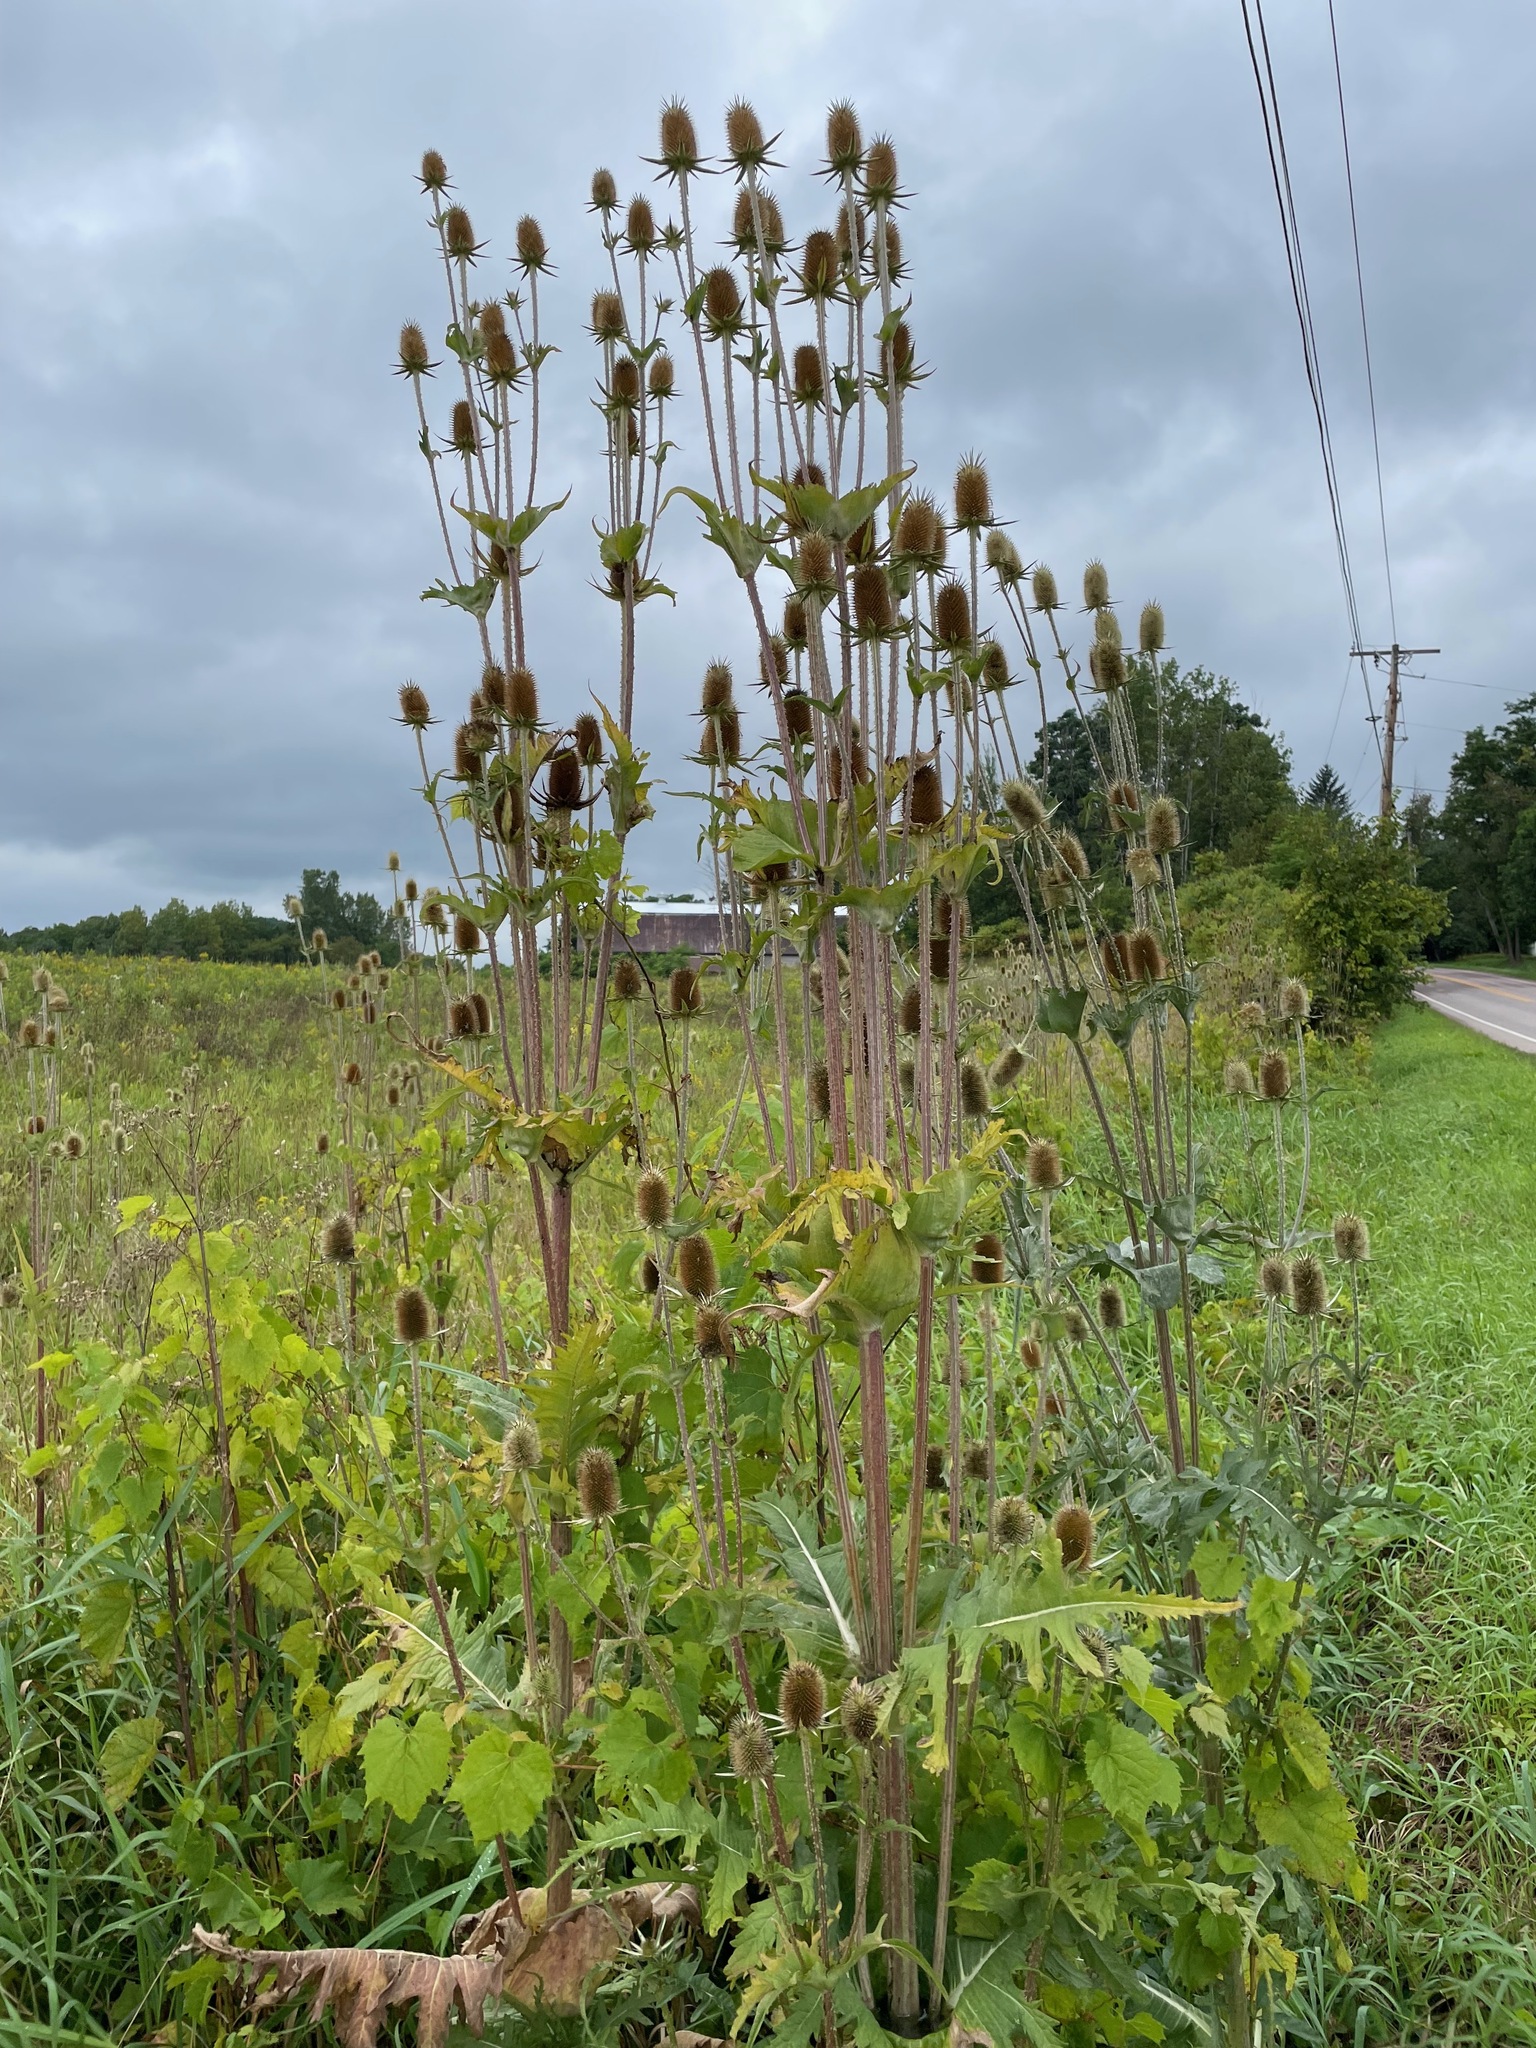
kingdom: Plantae
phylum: Tracheophyta
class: Magnoliopsida
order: Dipsacales
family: Caprifoliaceae
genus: Dipsacus
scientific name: Dipsacus laciniatus
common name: Cut-leaved teasel
